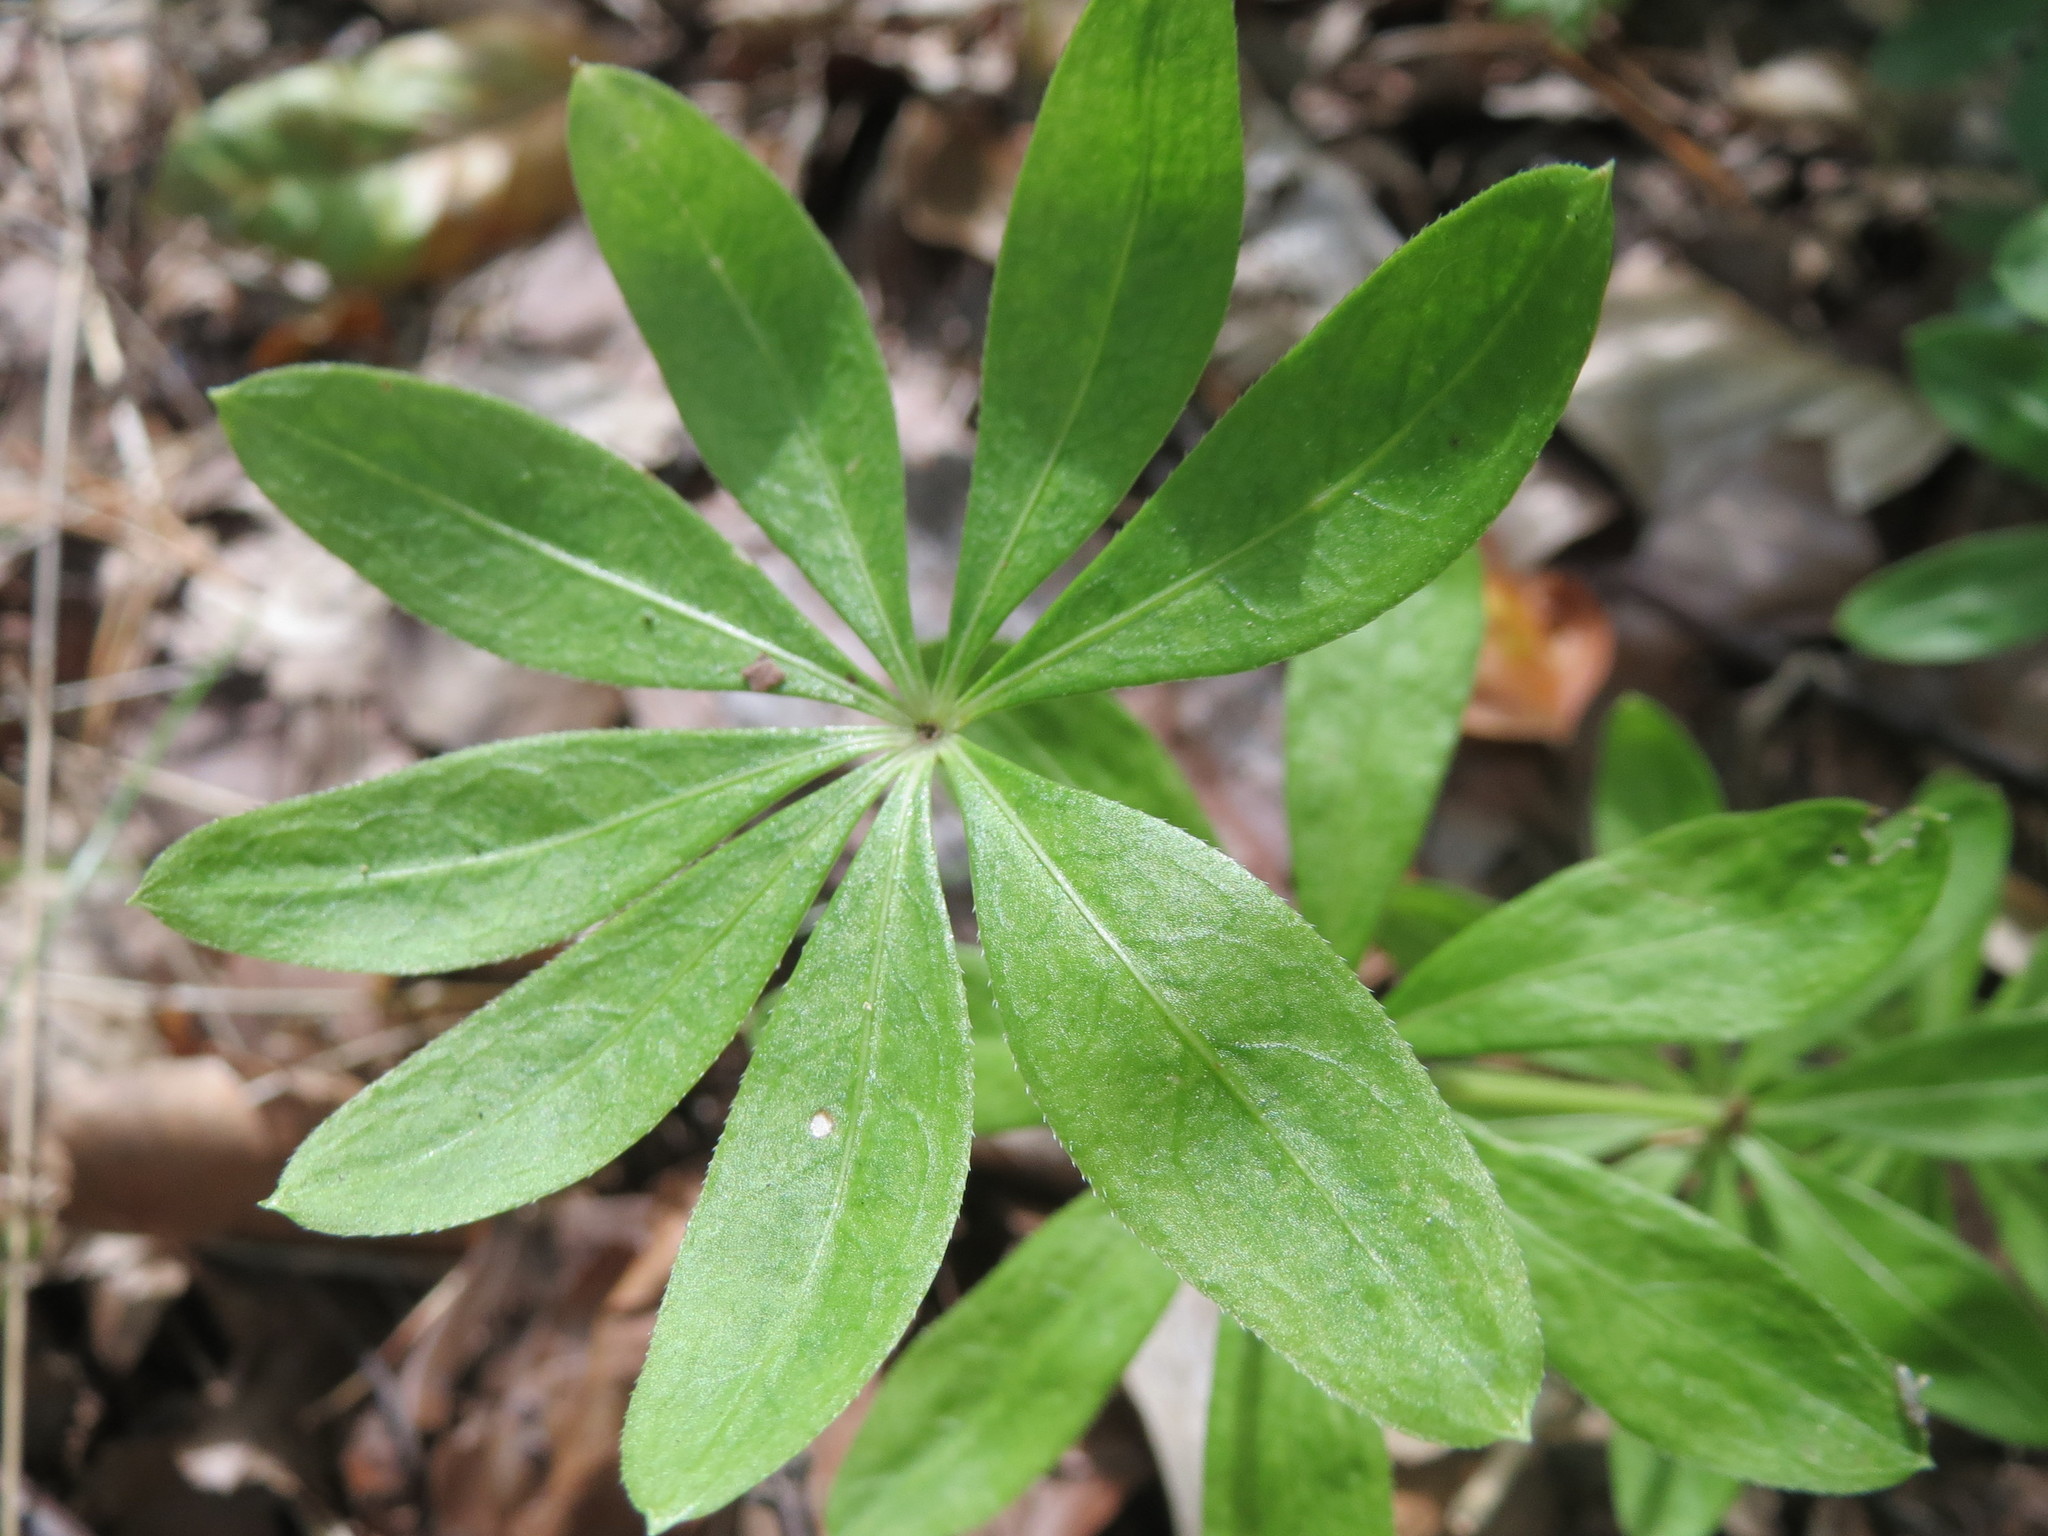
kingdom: Plantae
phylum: Tracheophyta
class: Magnoliopsida
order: Gentianales
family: Rubiaceae
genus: Galium
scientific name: Galium odoratum
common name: Sweet woodruff
